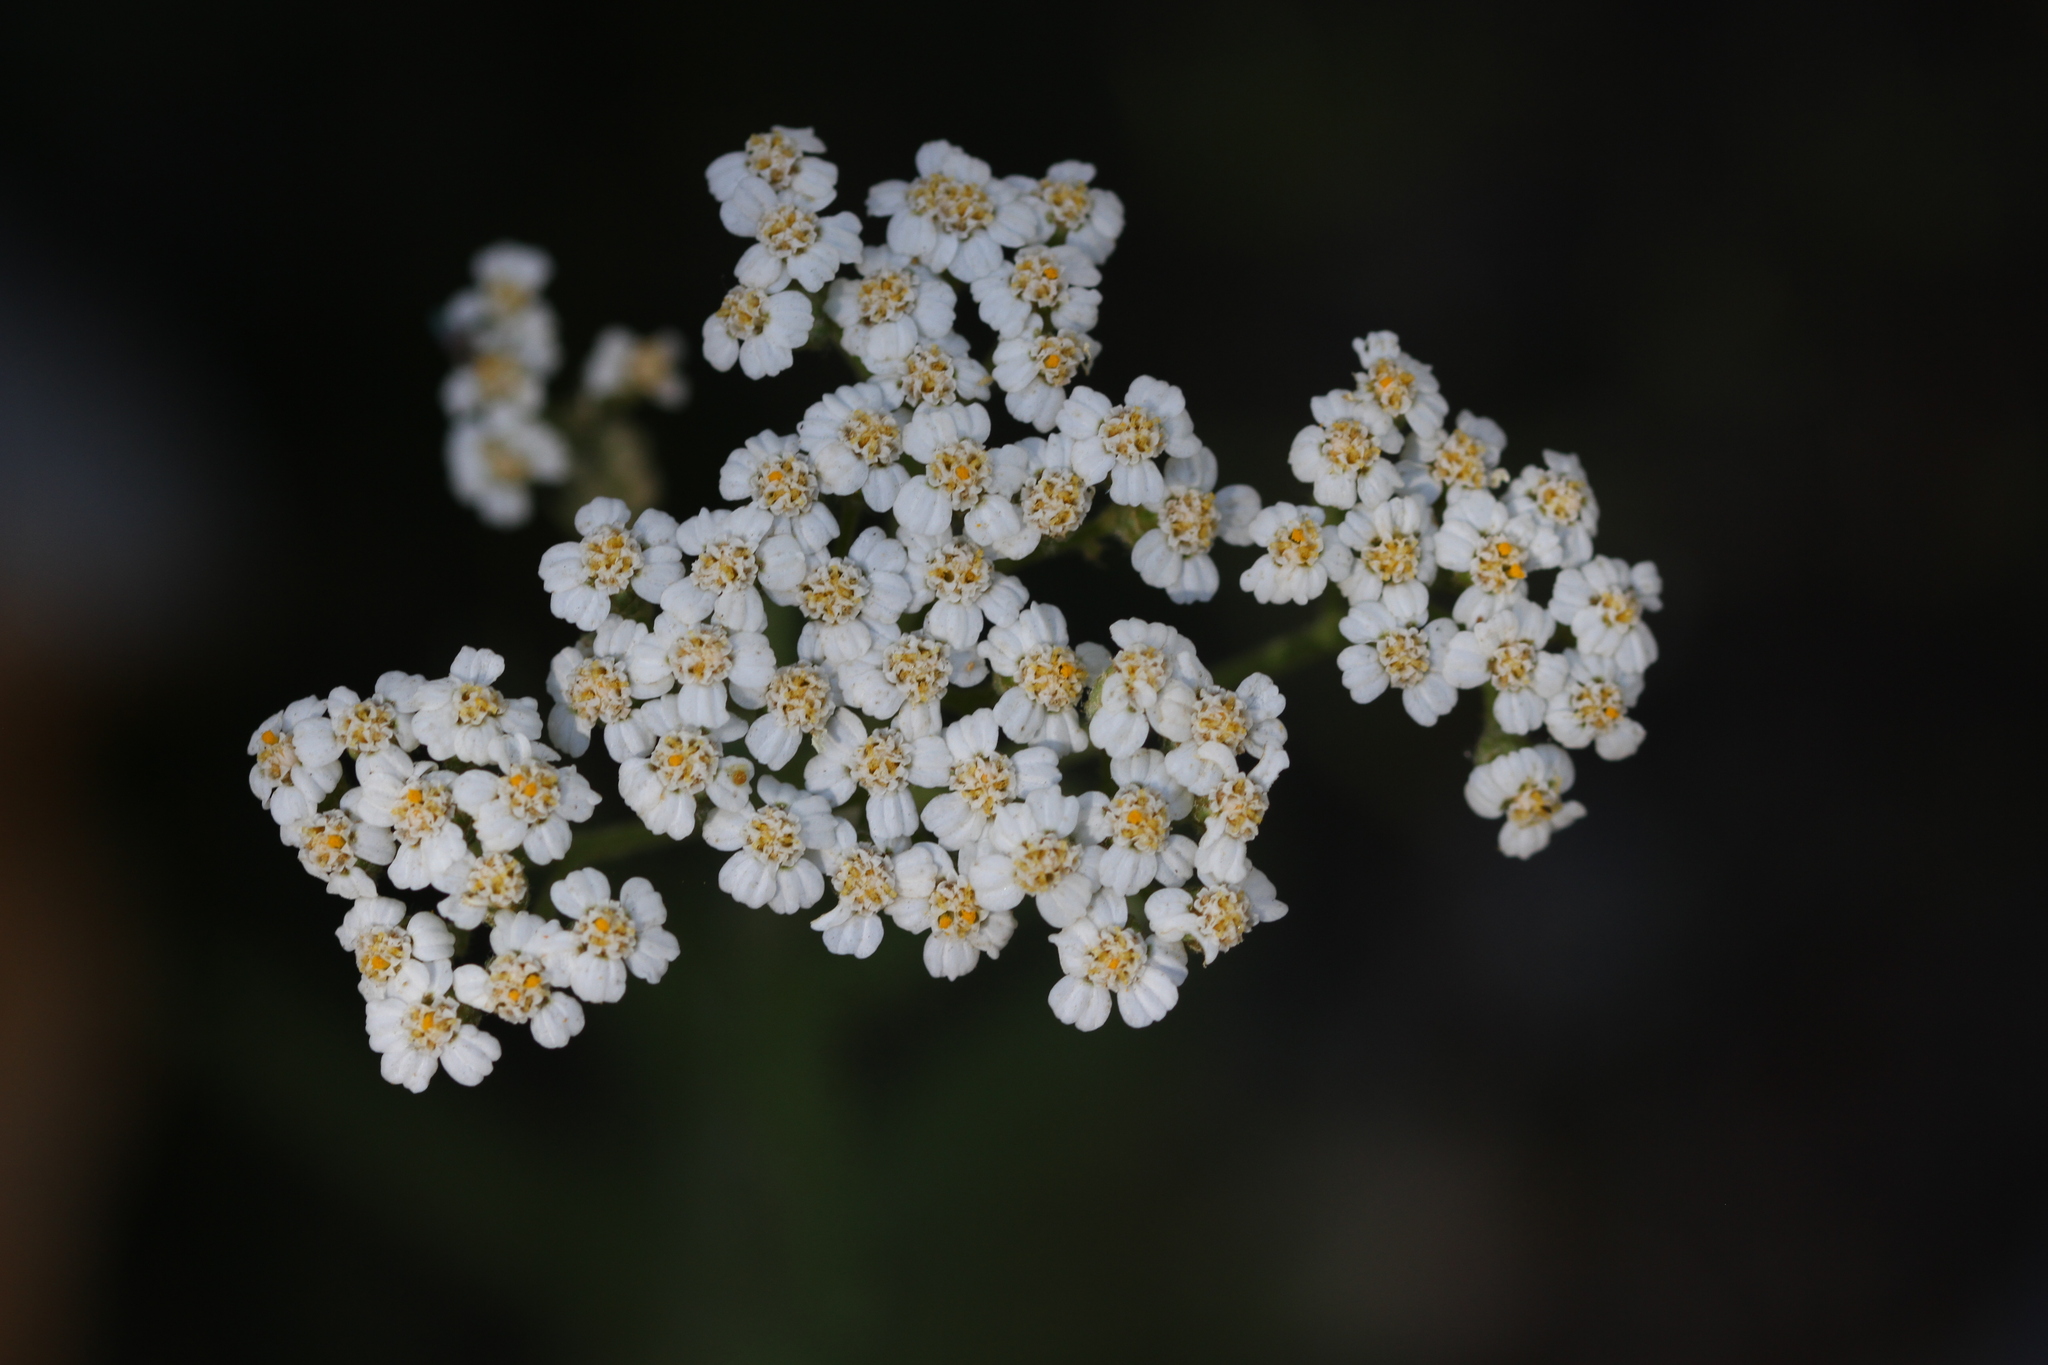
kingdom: Plantae
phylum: Tracheophyta
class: Magnoliopsida
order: Asterales
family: Asteraceae
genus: Achillea
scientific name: Achillea millefolium
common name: Yarrow
